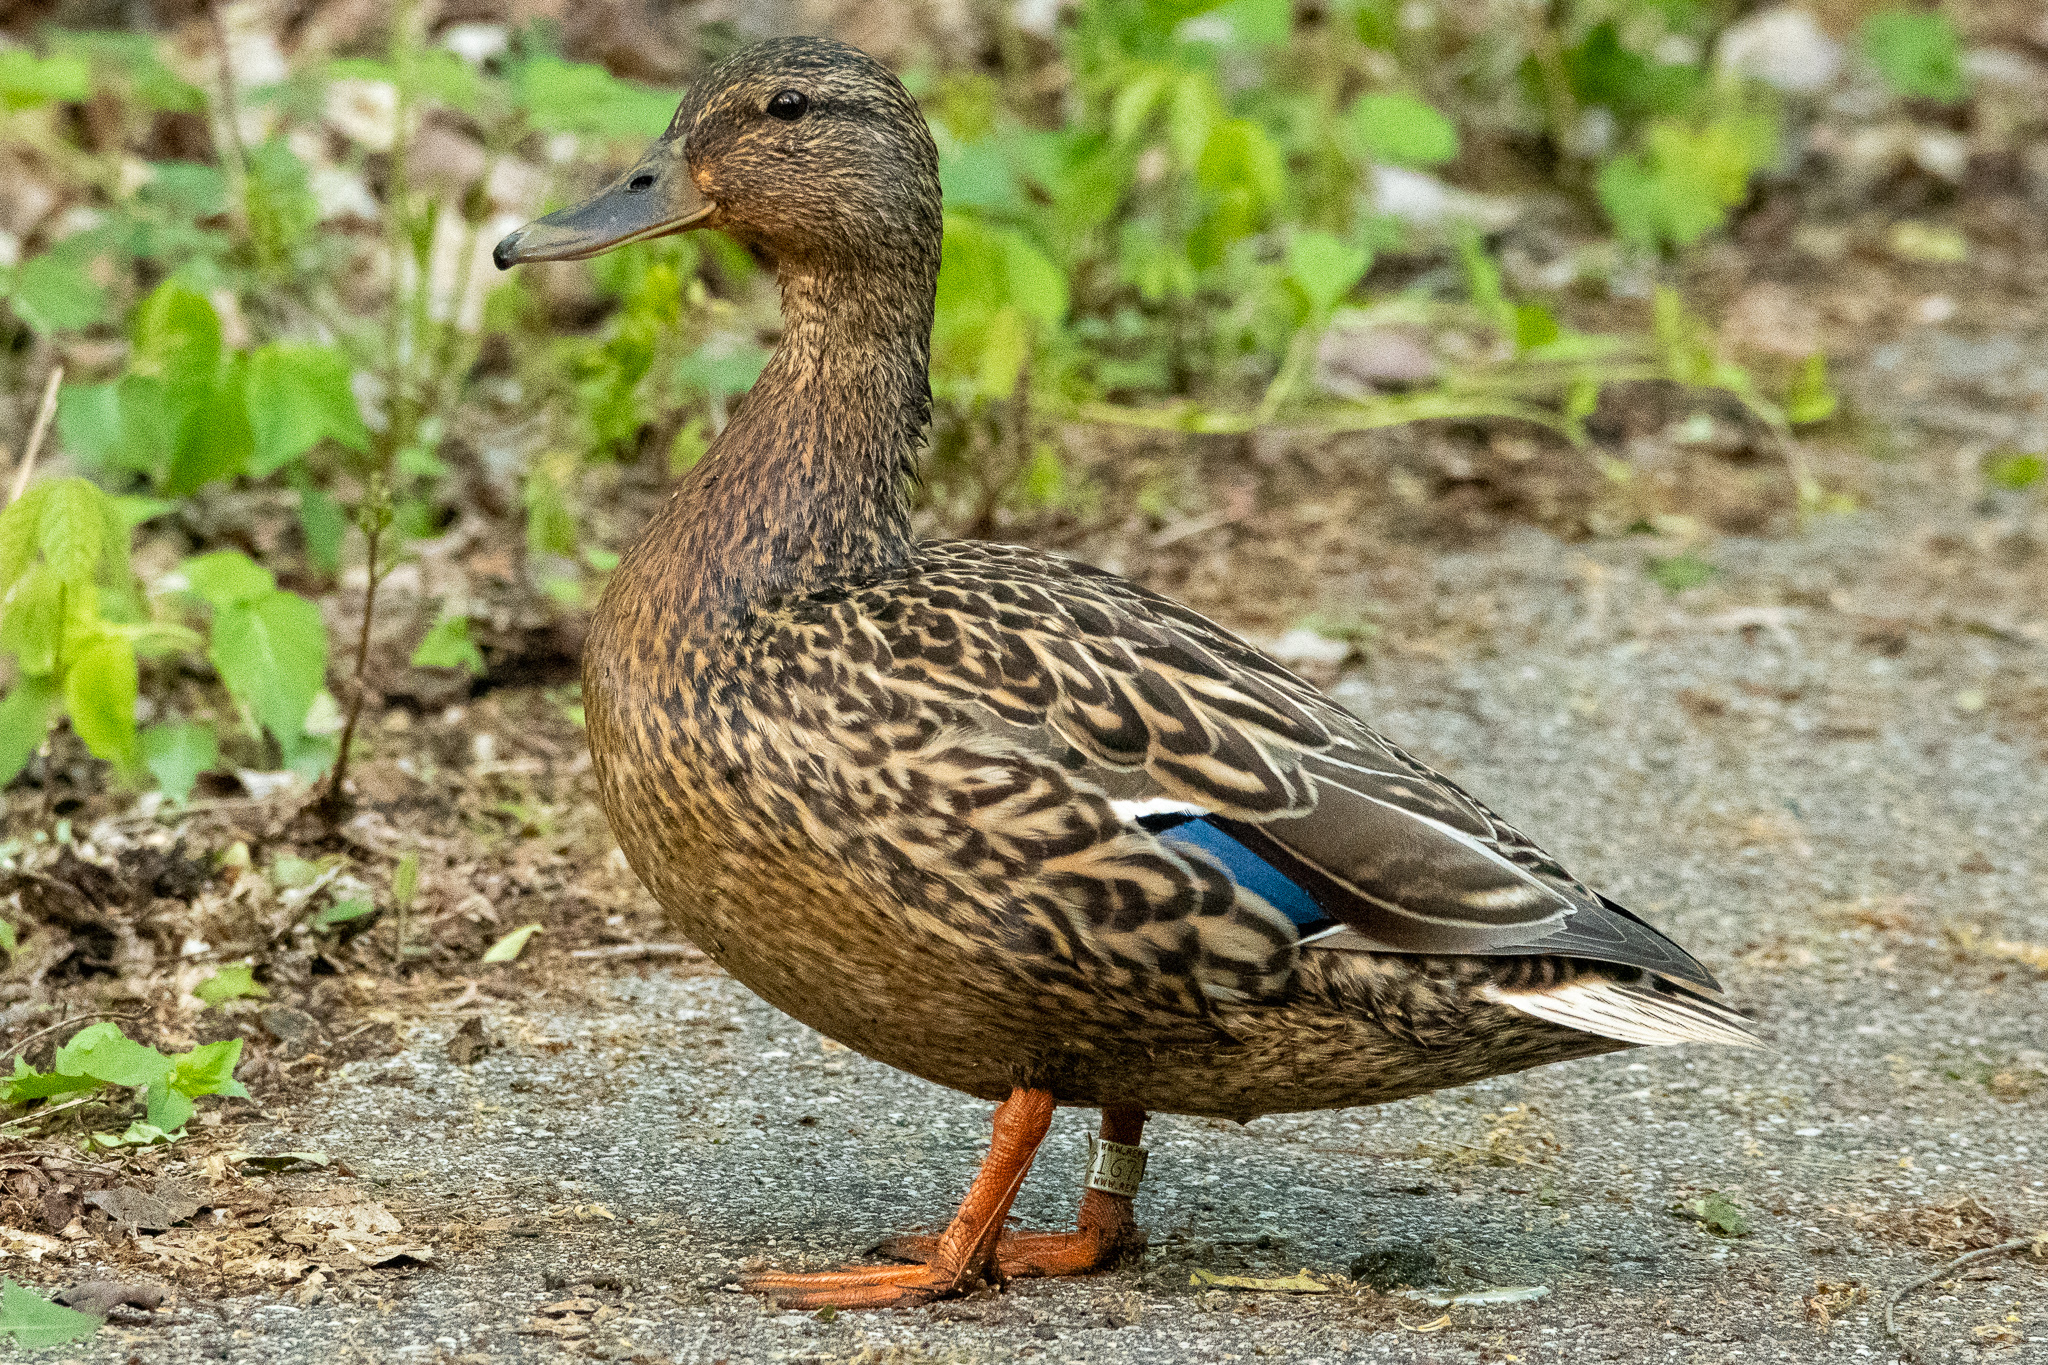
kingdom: Animalia
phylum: Chordata
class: Aves
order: Anseriformes
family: Anatidae
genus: Anas
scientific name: Anas platyrhynchos
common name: Mallard
